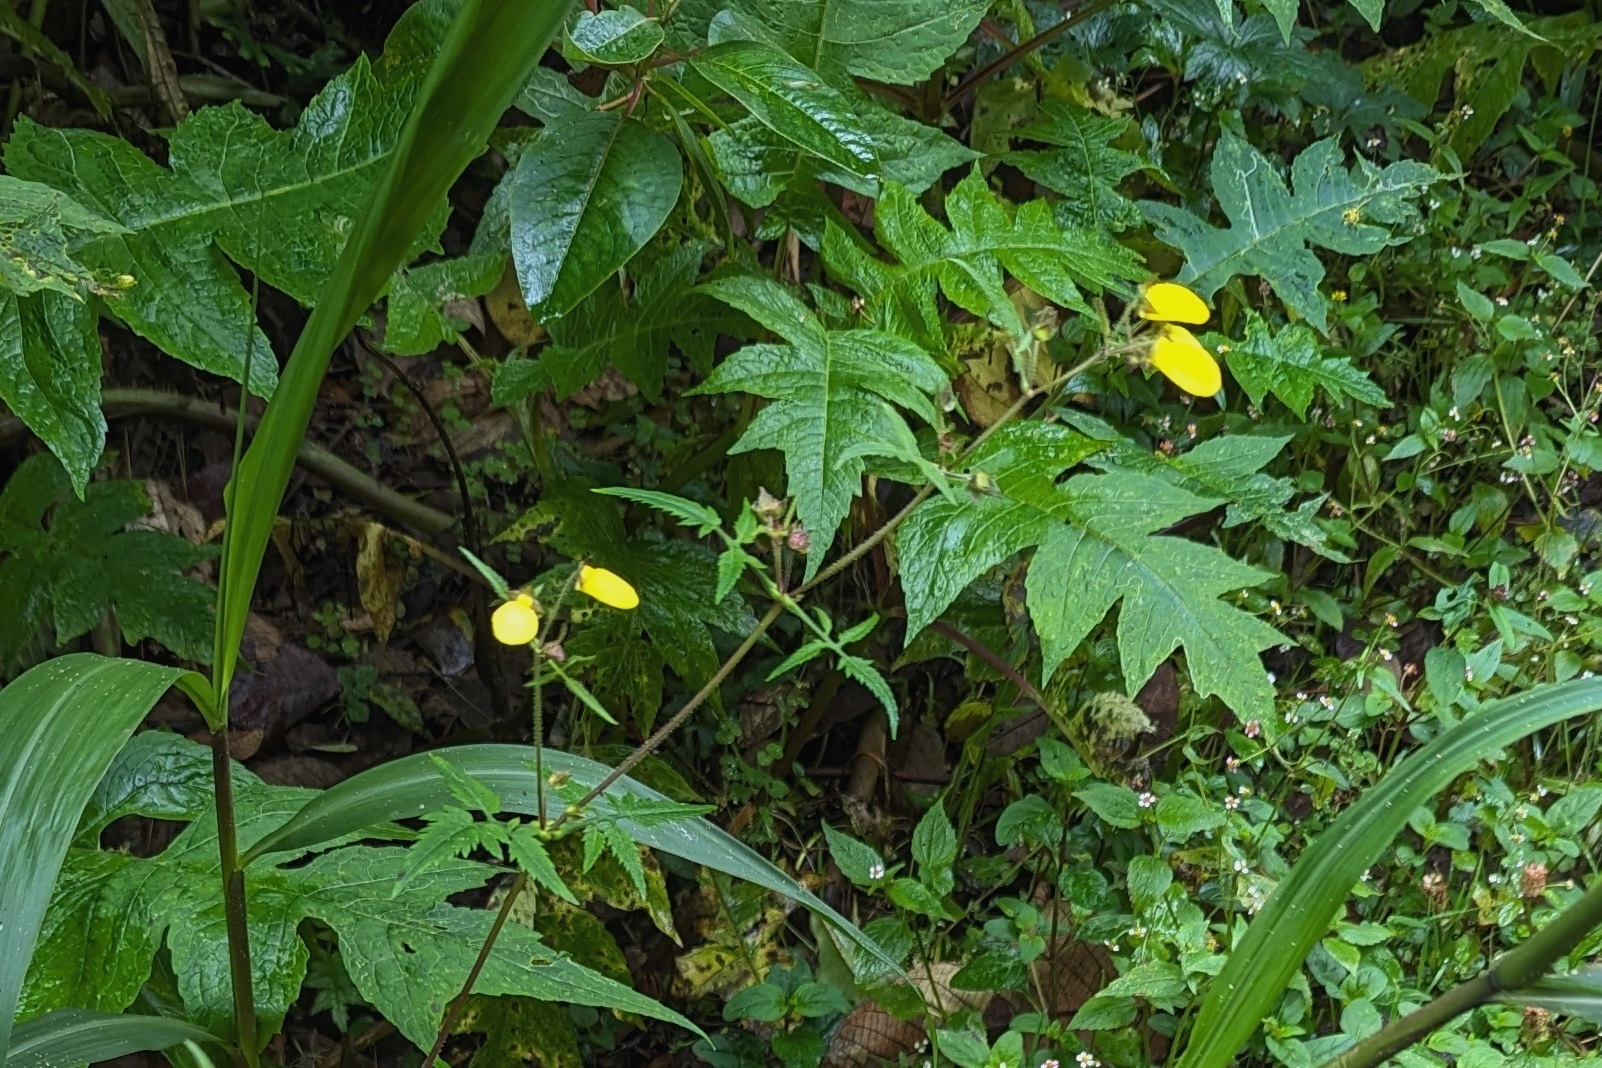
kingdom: Plantae
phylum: Tracheophyta
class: Magnoliopsida
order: Lamiales
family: Calceolariaceae
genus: Calceolaria
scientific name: Calceolaria tripartita
